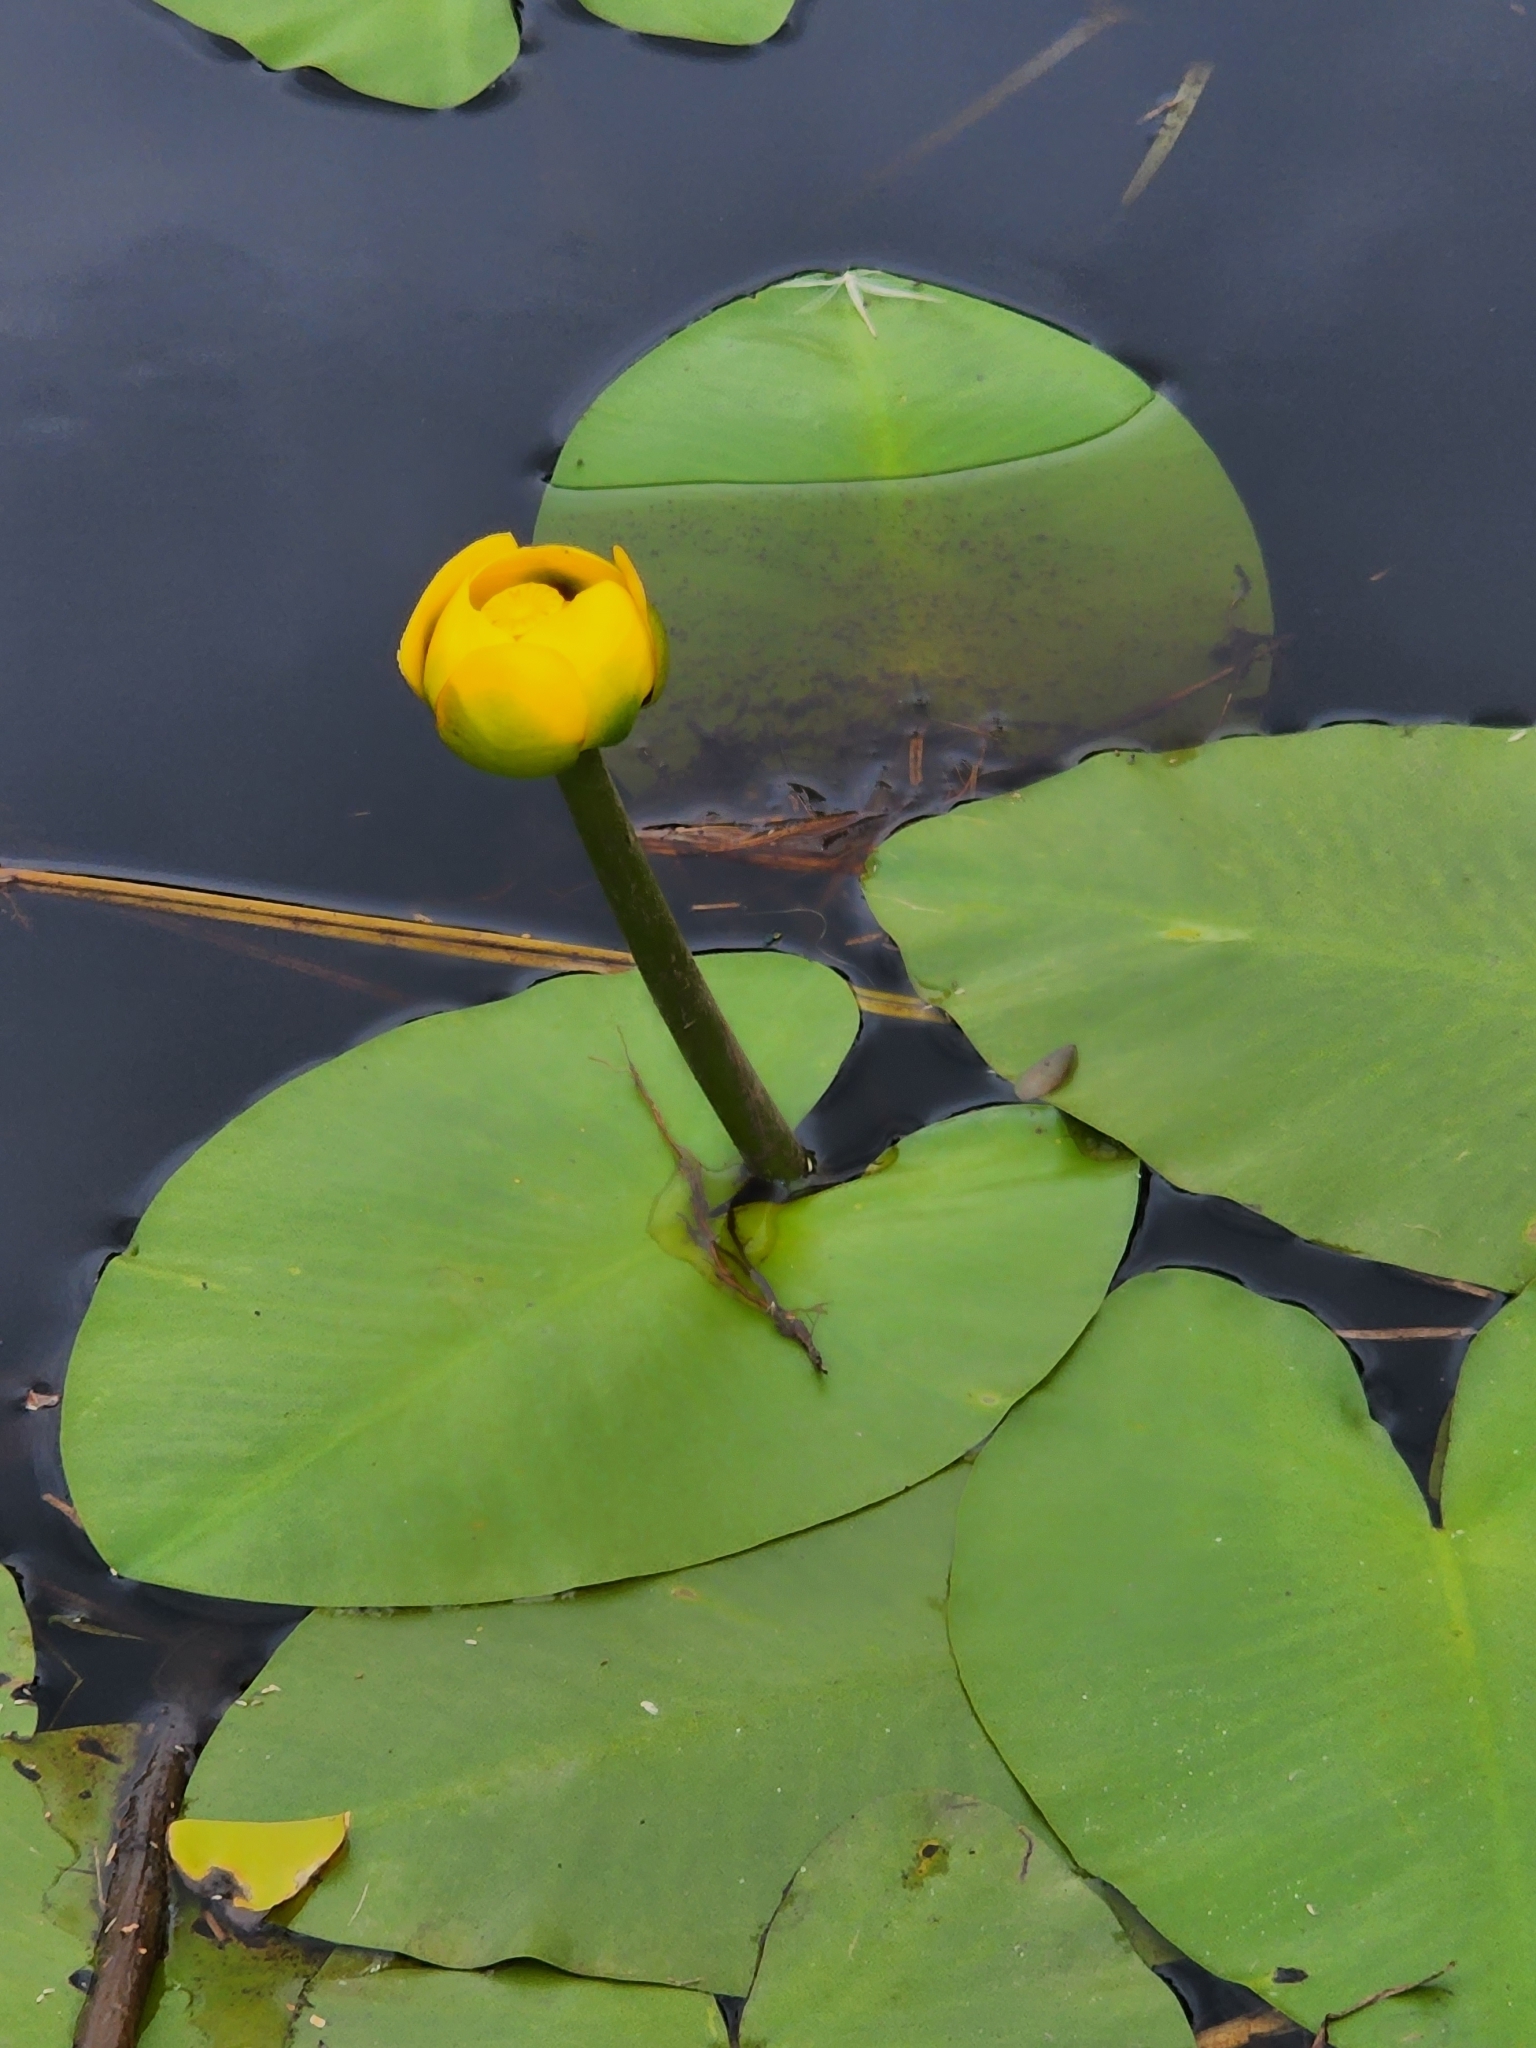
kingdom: Plantae
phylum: Tracheophyta
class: Magnoliopsida
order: Nymphaeales
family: Nymphaeaceae
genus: Nuphar
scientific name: Nuphar variegata
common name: Beaver-root
